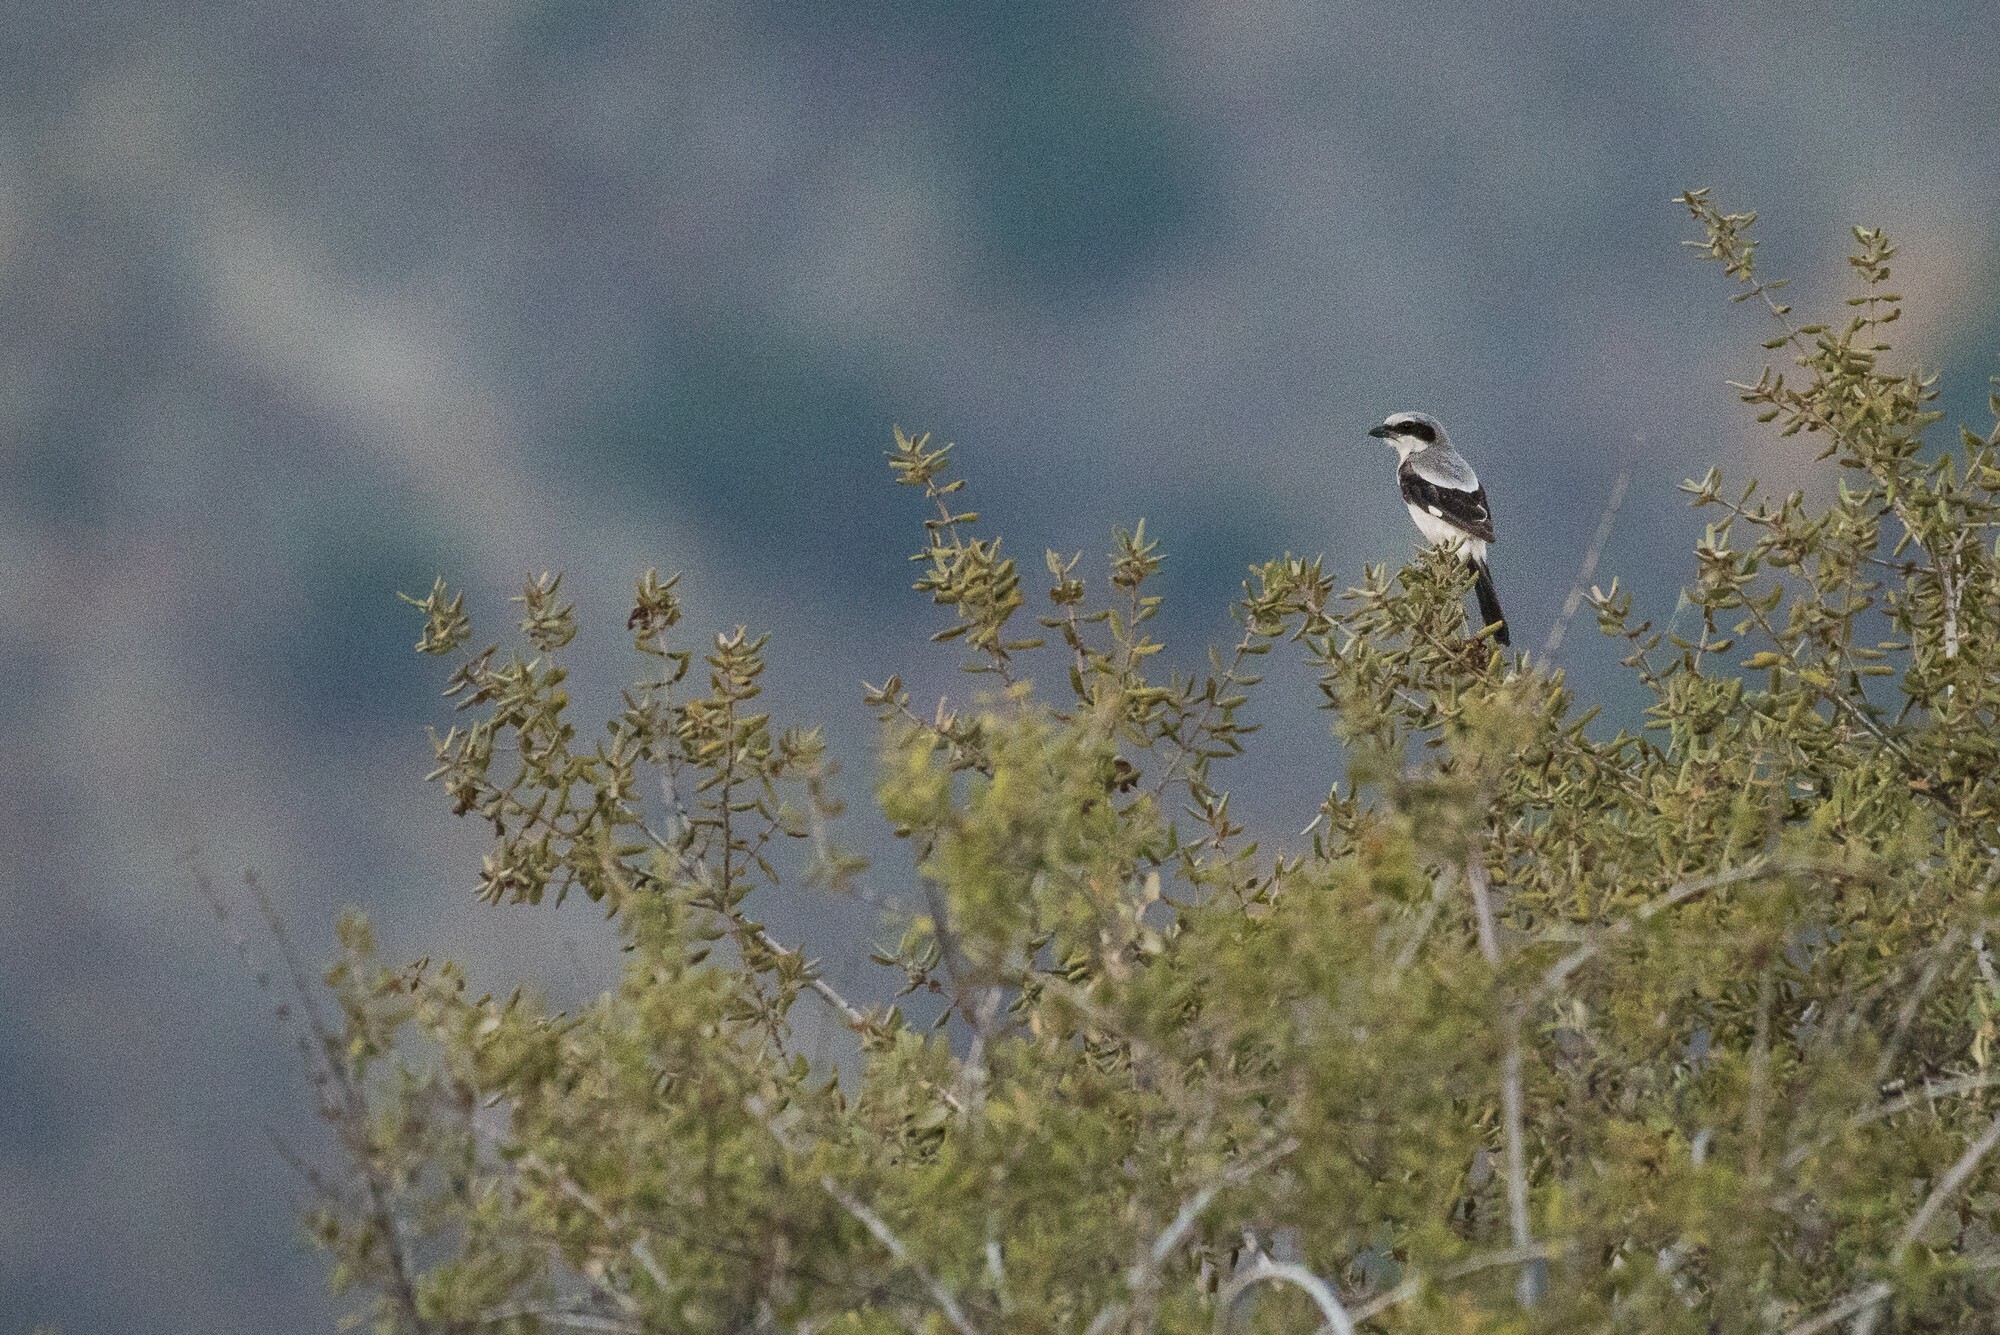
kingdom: Animalia
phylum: Chordata
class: Aves
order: Passeriformes
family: Laniidae
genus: Lanius
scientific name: Lanius ludovicianus
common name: Loggerhead shrike
